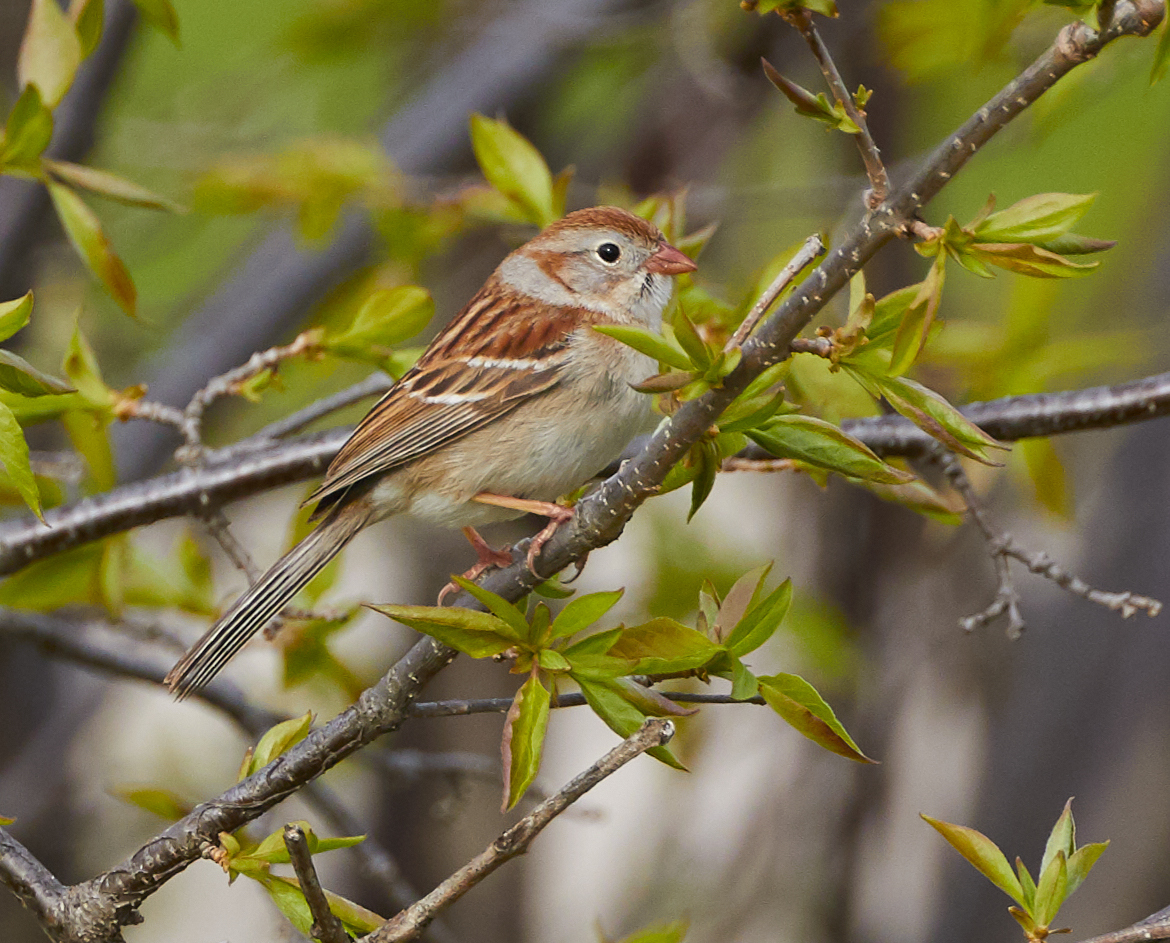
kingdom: Animalia
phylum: Chordata
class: Aves
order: Passeriformes
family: Passerellidae
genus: Spizella
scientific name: Spizella pusilla
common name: Field sparrow
